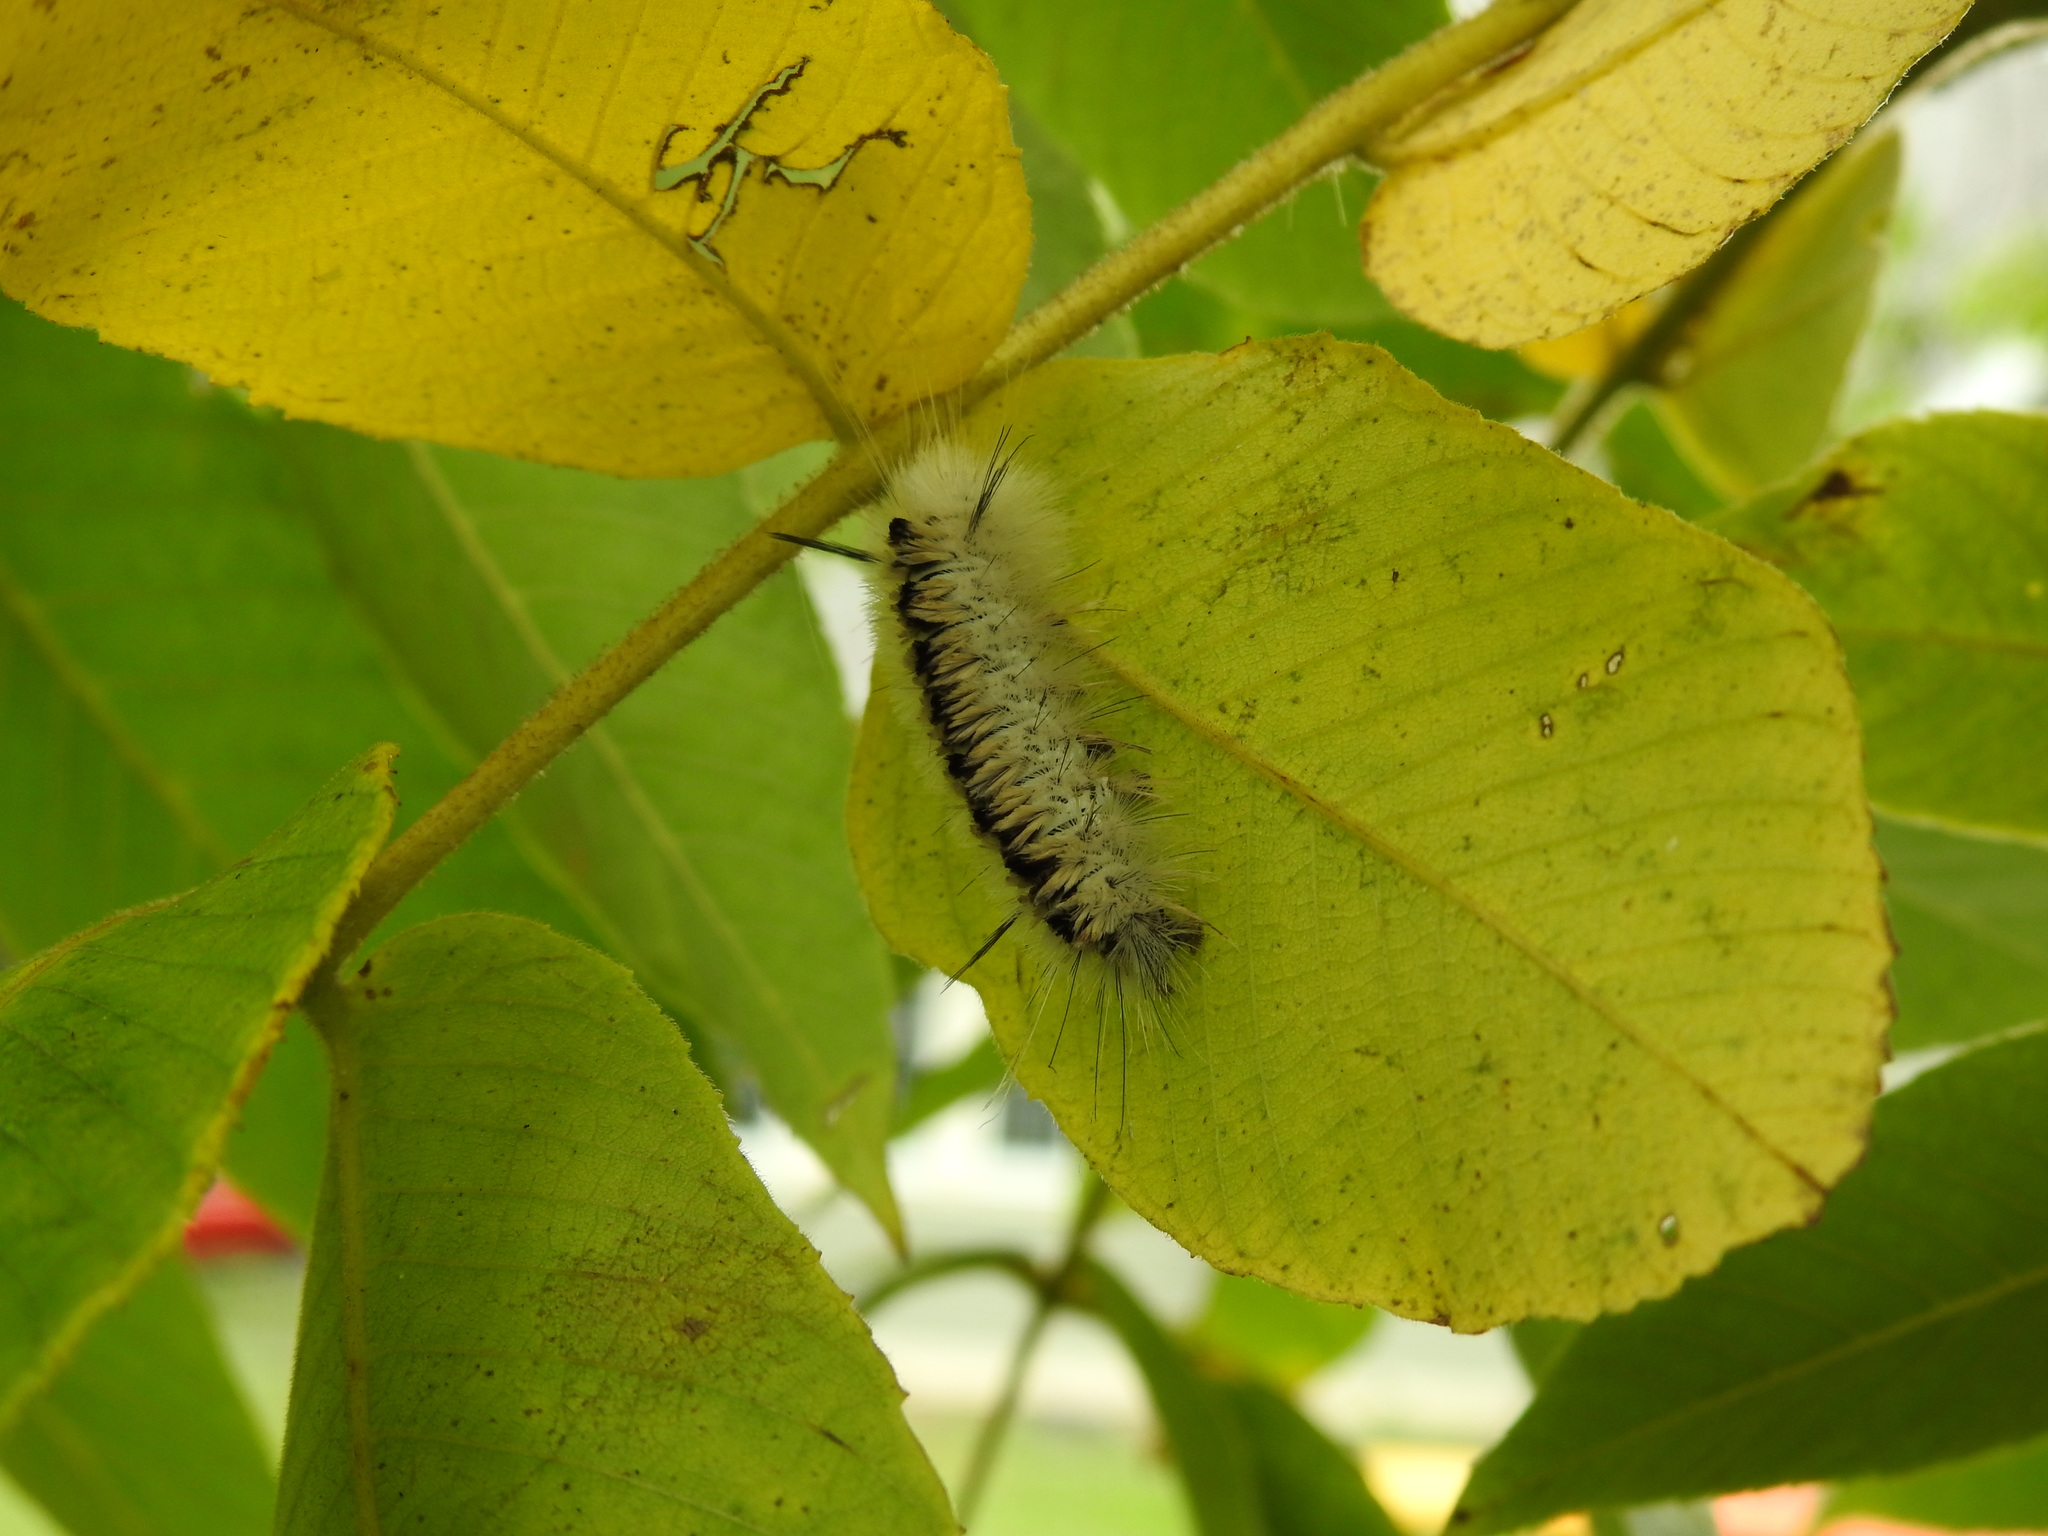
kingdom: Animalia
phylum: Arthropoda
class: Insecta
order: Lepidoptera
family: Erebidae
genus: Lophocampa
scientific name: Lophocampa caryae
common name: Hickory tussock moth
